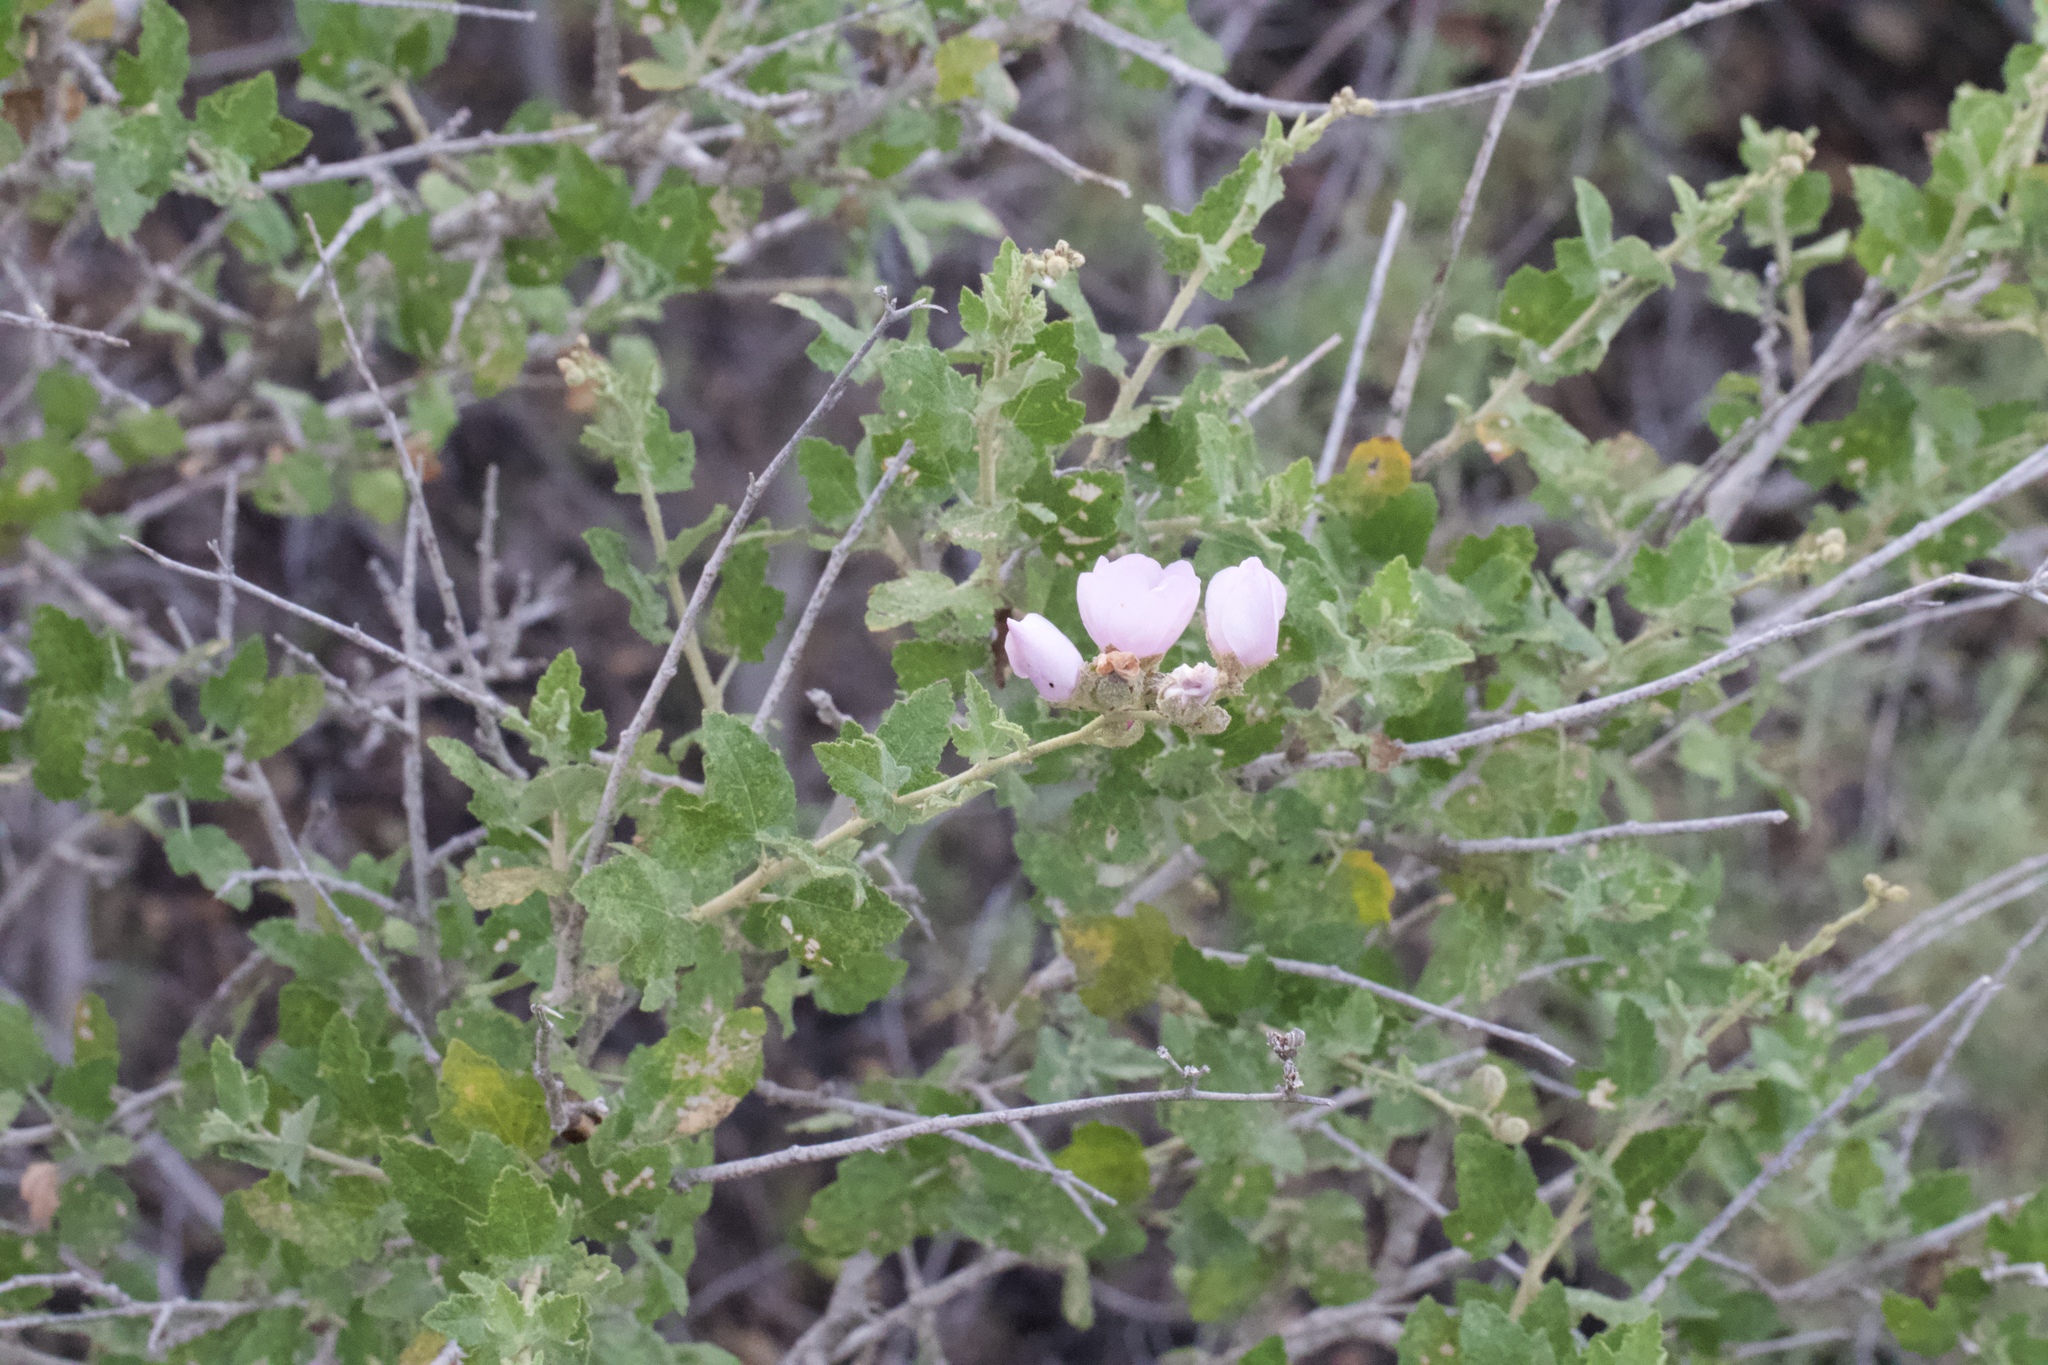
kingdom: Plantae
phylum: Tracheophyta
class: Magnoliopsida
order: Malvales
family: Malvaceae
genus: Malacothamnus
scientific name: Malacothamnus fasciculatus
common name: Sant cruz island bush-mallow
